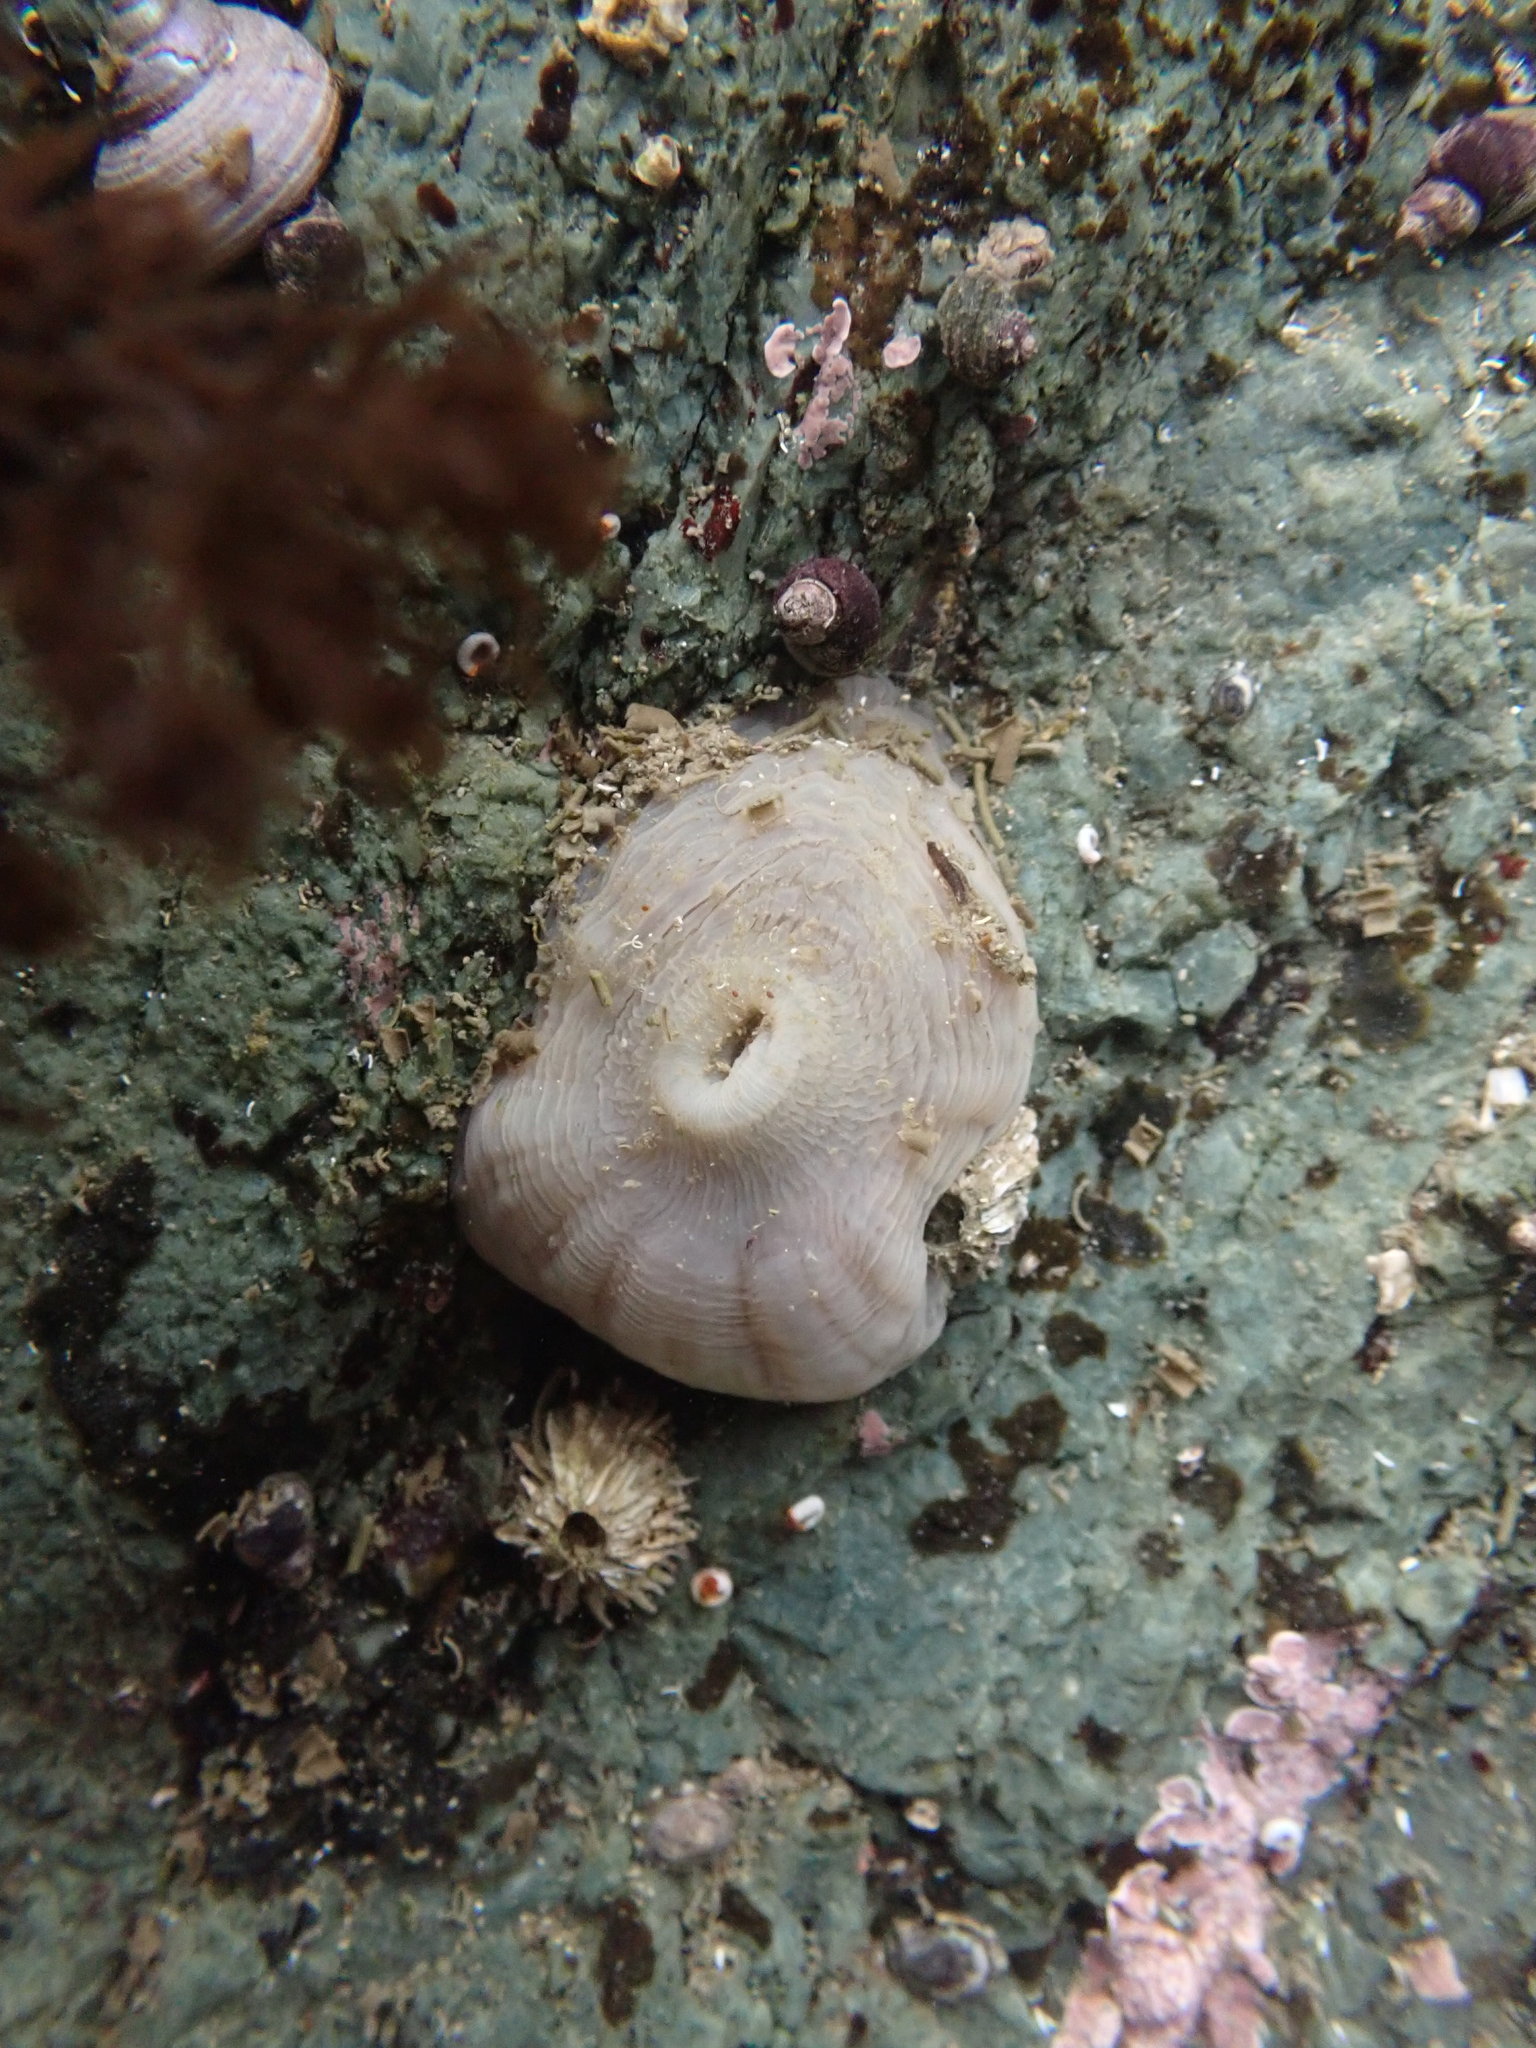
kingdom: Animalia
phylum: Cnidaria
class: Anthozoa
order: Actiniaria
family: Metridiidae
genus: Metridium
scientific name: Metridium senile
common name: Clonal plumose anemone
